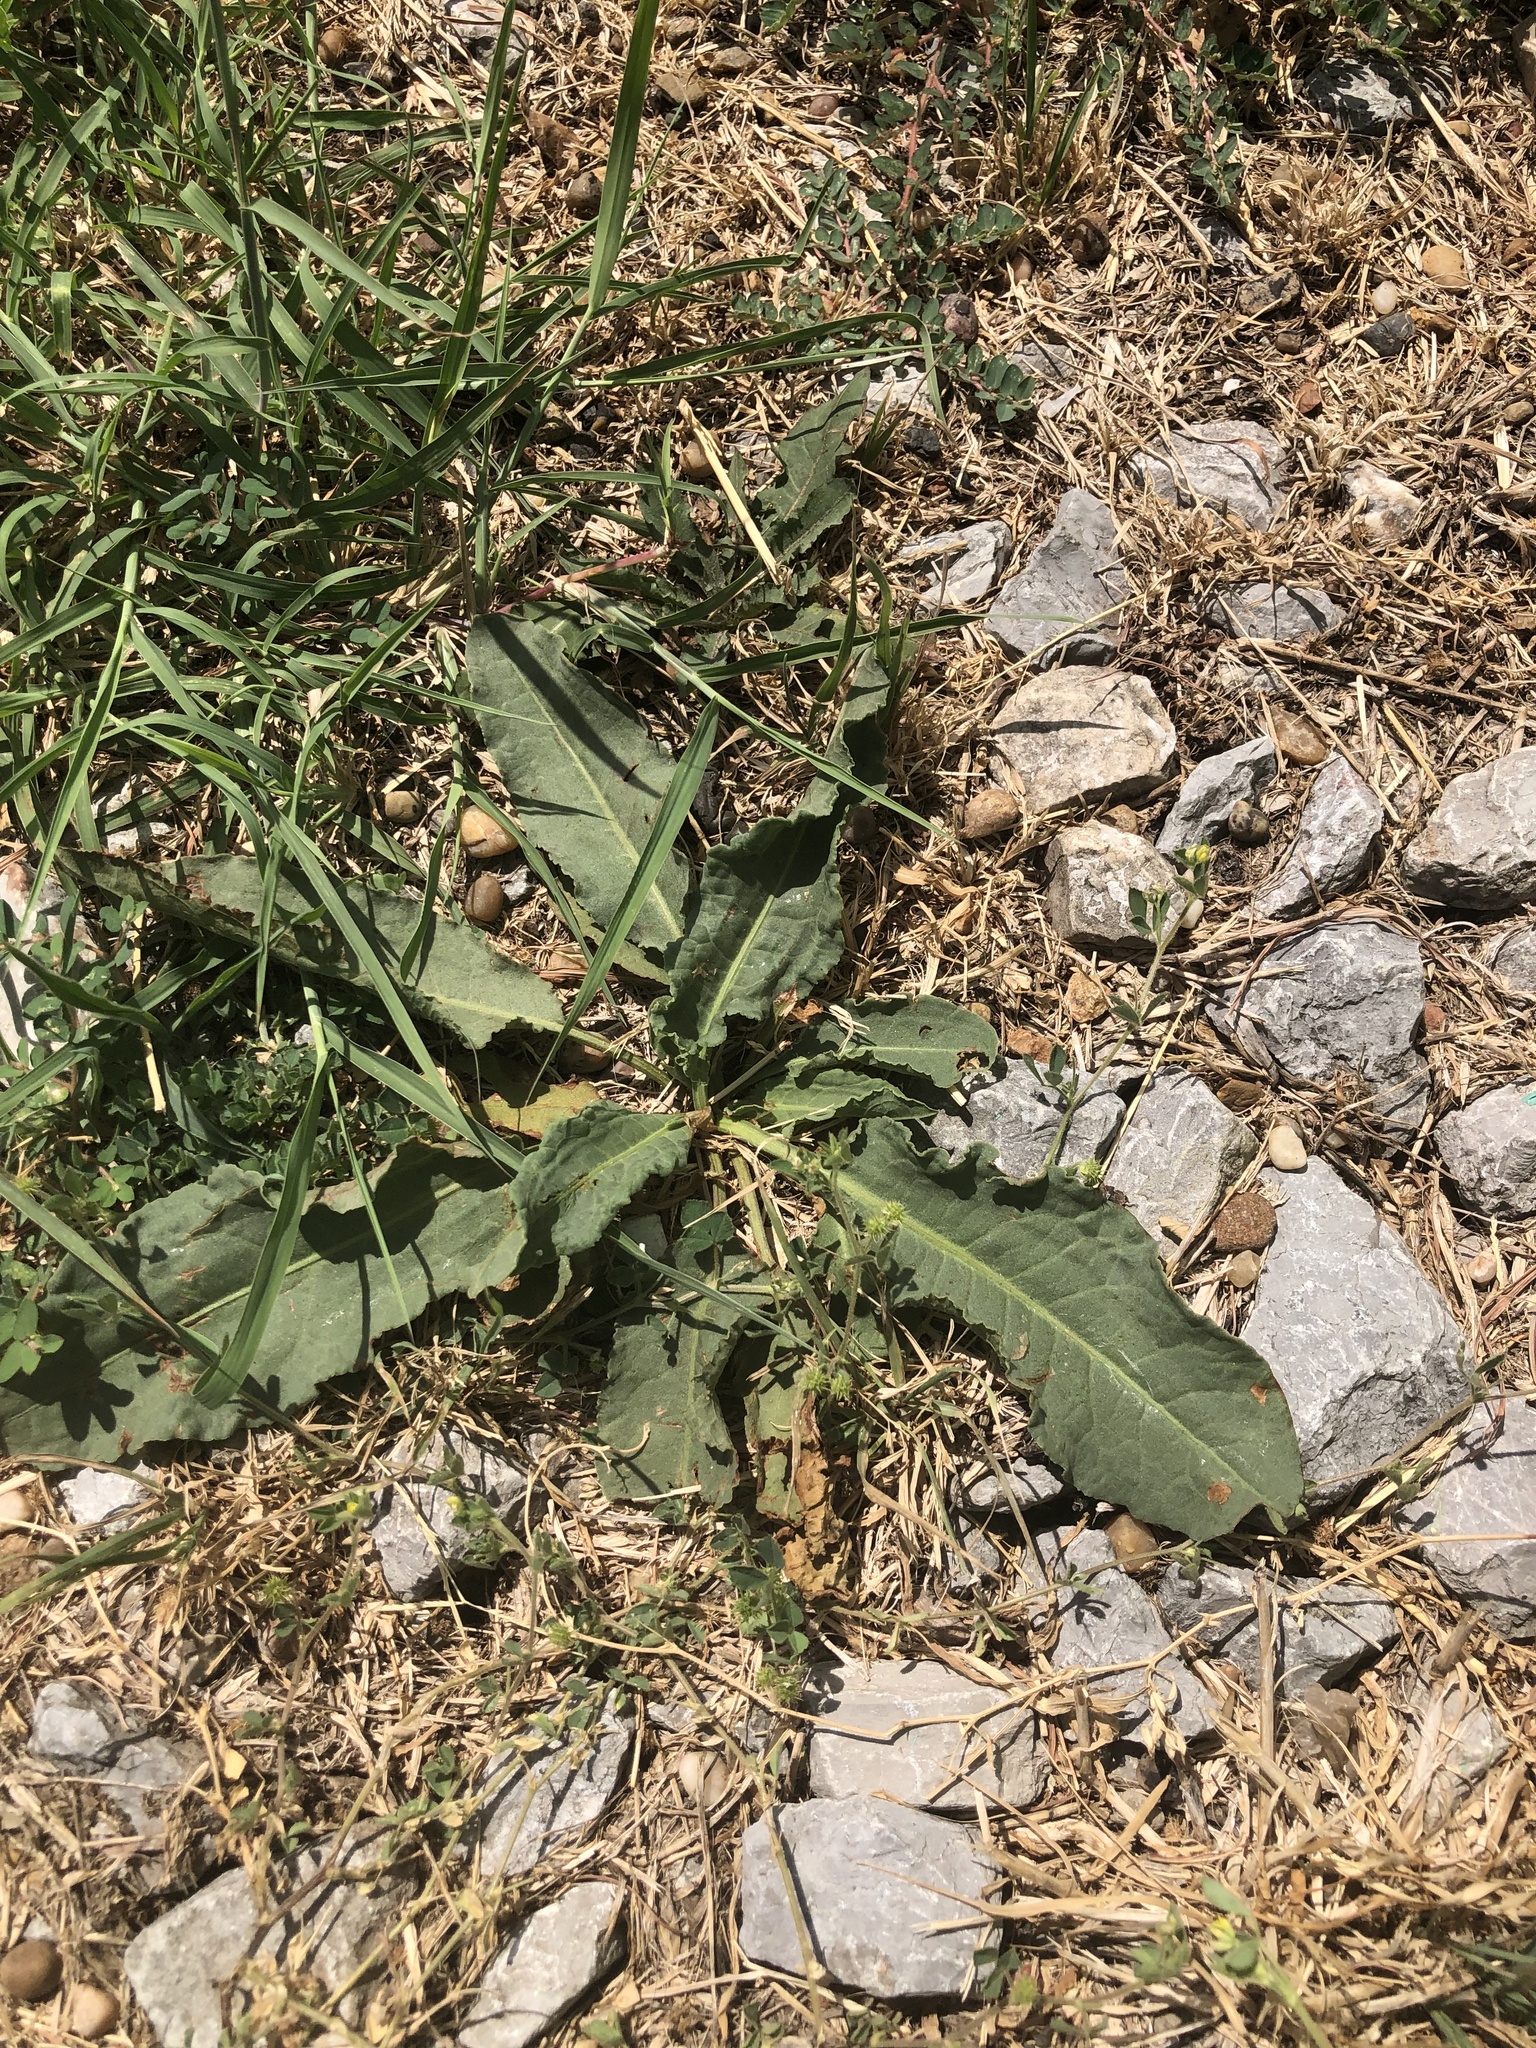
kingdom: Plantae
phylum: Tracheophyta
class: Magnoliopsida
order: Caryophyllales
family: Polygonaceae
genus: Rumex
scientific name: Rumex crispus
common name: Curled dock
